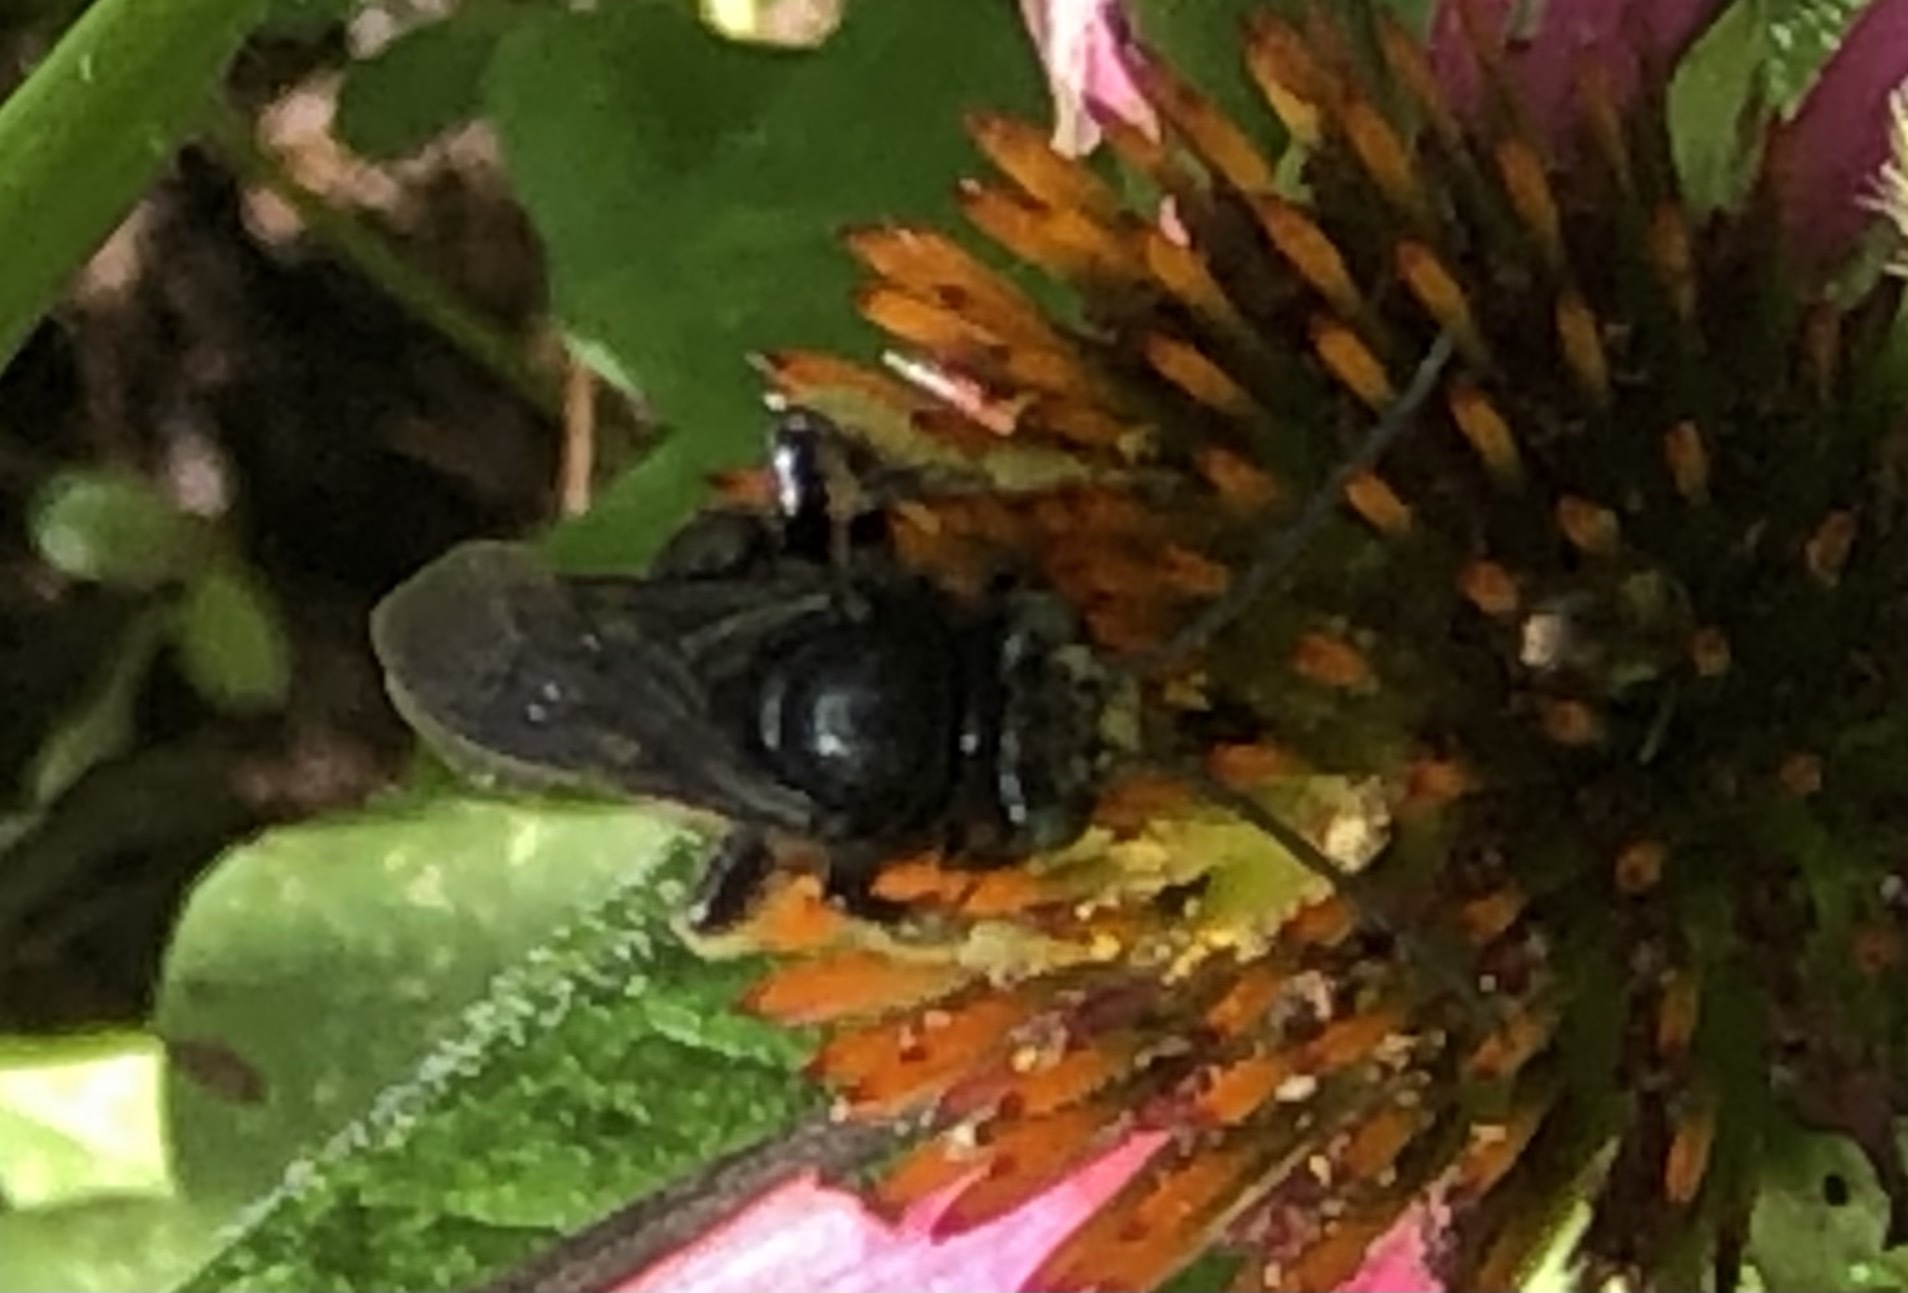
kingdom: Animalia
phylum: Arthropoda
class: Insecta
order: Hymenoptera
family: Apidae
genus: Melissodes
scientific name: Melissodes bimaculatus
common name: Two-spotted long-horned bee
